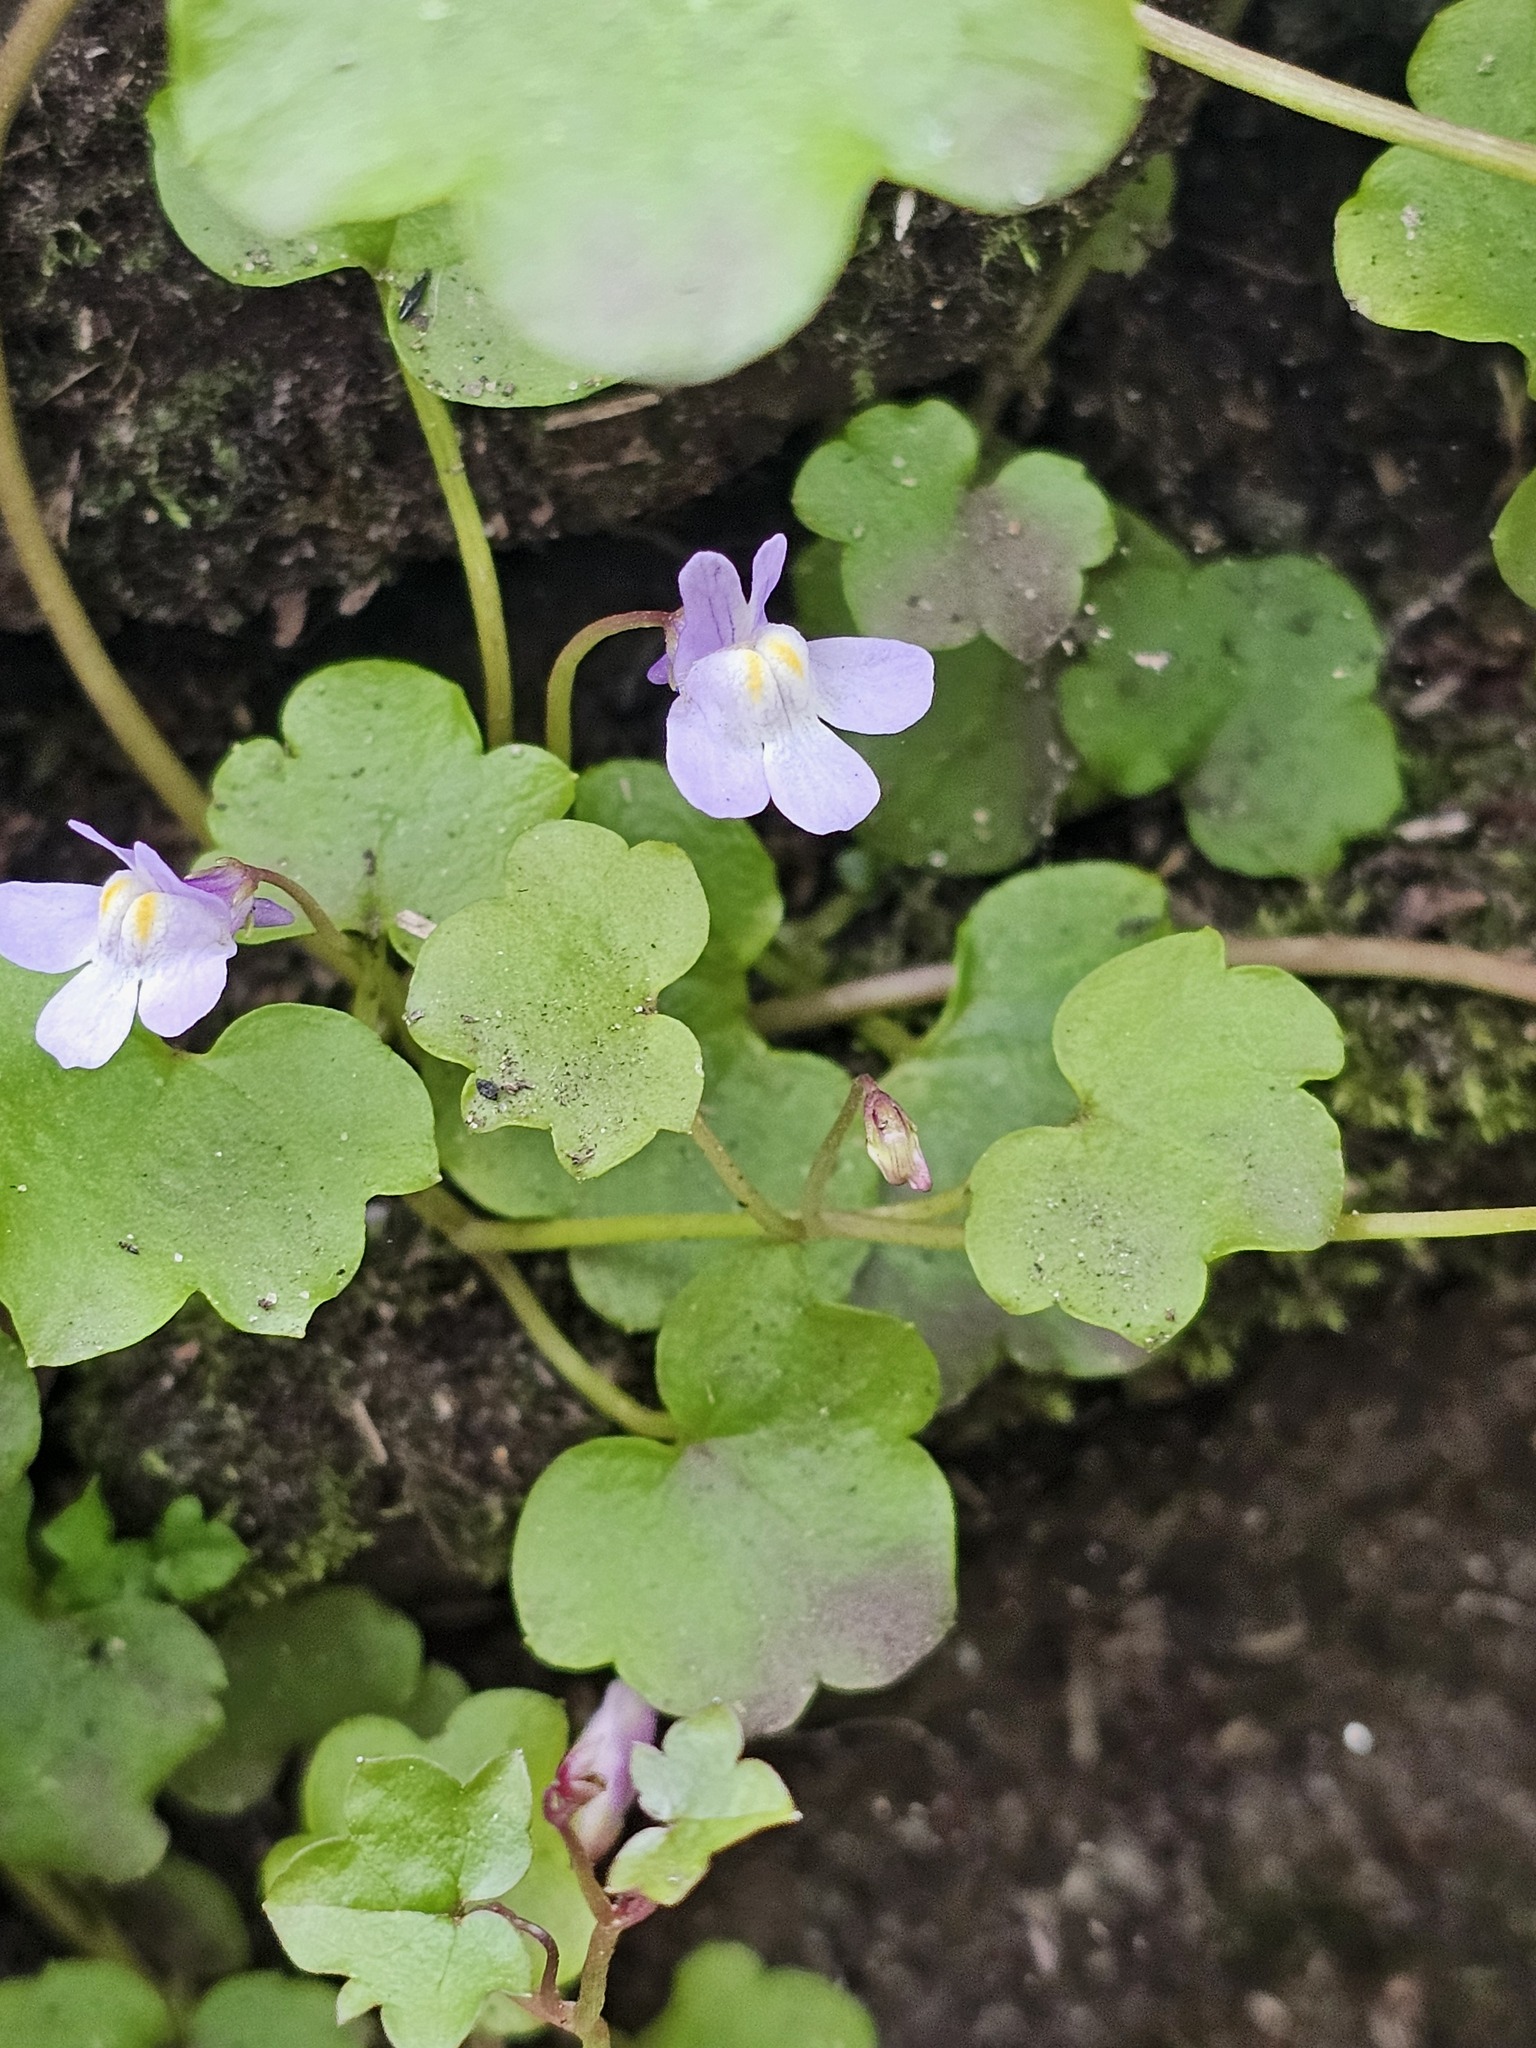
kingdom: Plantae
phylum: Tracheophyta
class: Magnoliopsida
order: Lamiales
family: Plantaginaceae
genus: Cymbalaria
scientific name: Cymbalaria muralis
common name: Ivy-leaved toadflax
